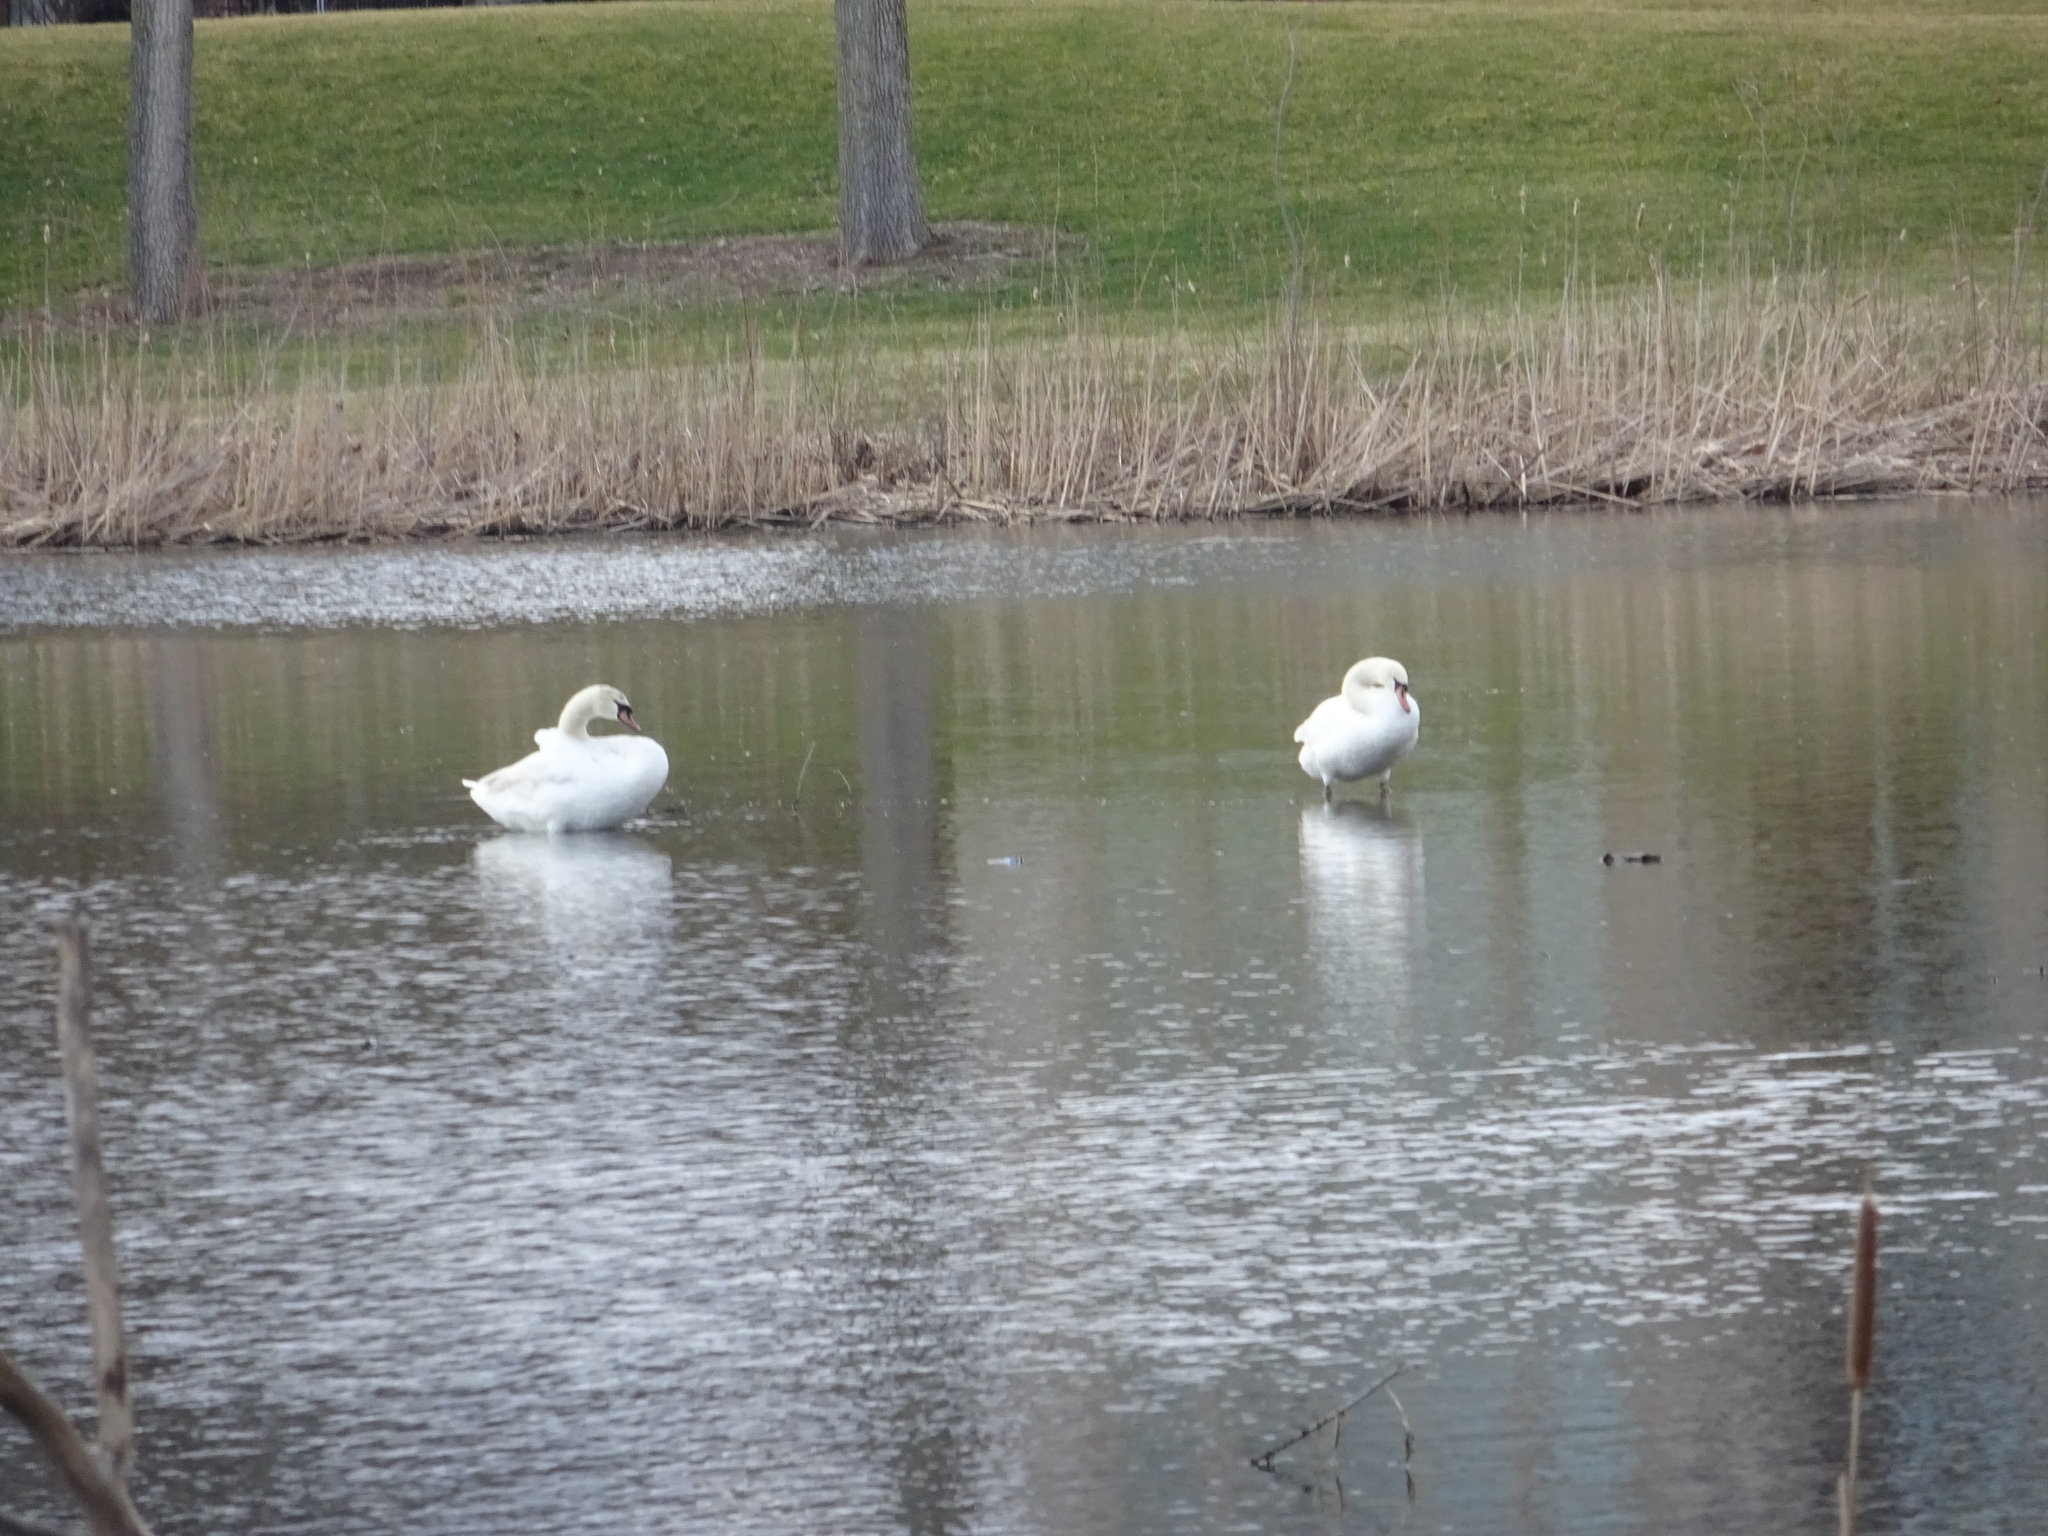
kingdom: Animalia
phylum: Chordata
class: Aves
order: Anseriformes
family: Anatidae
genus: Cygnus
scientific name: Cygnus olor
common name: Mute swan
